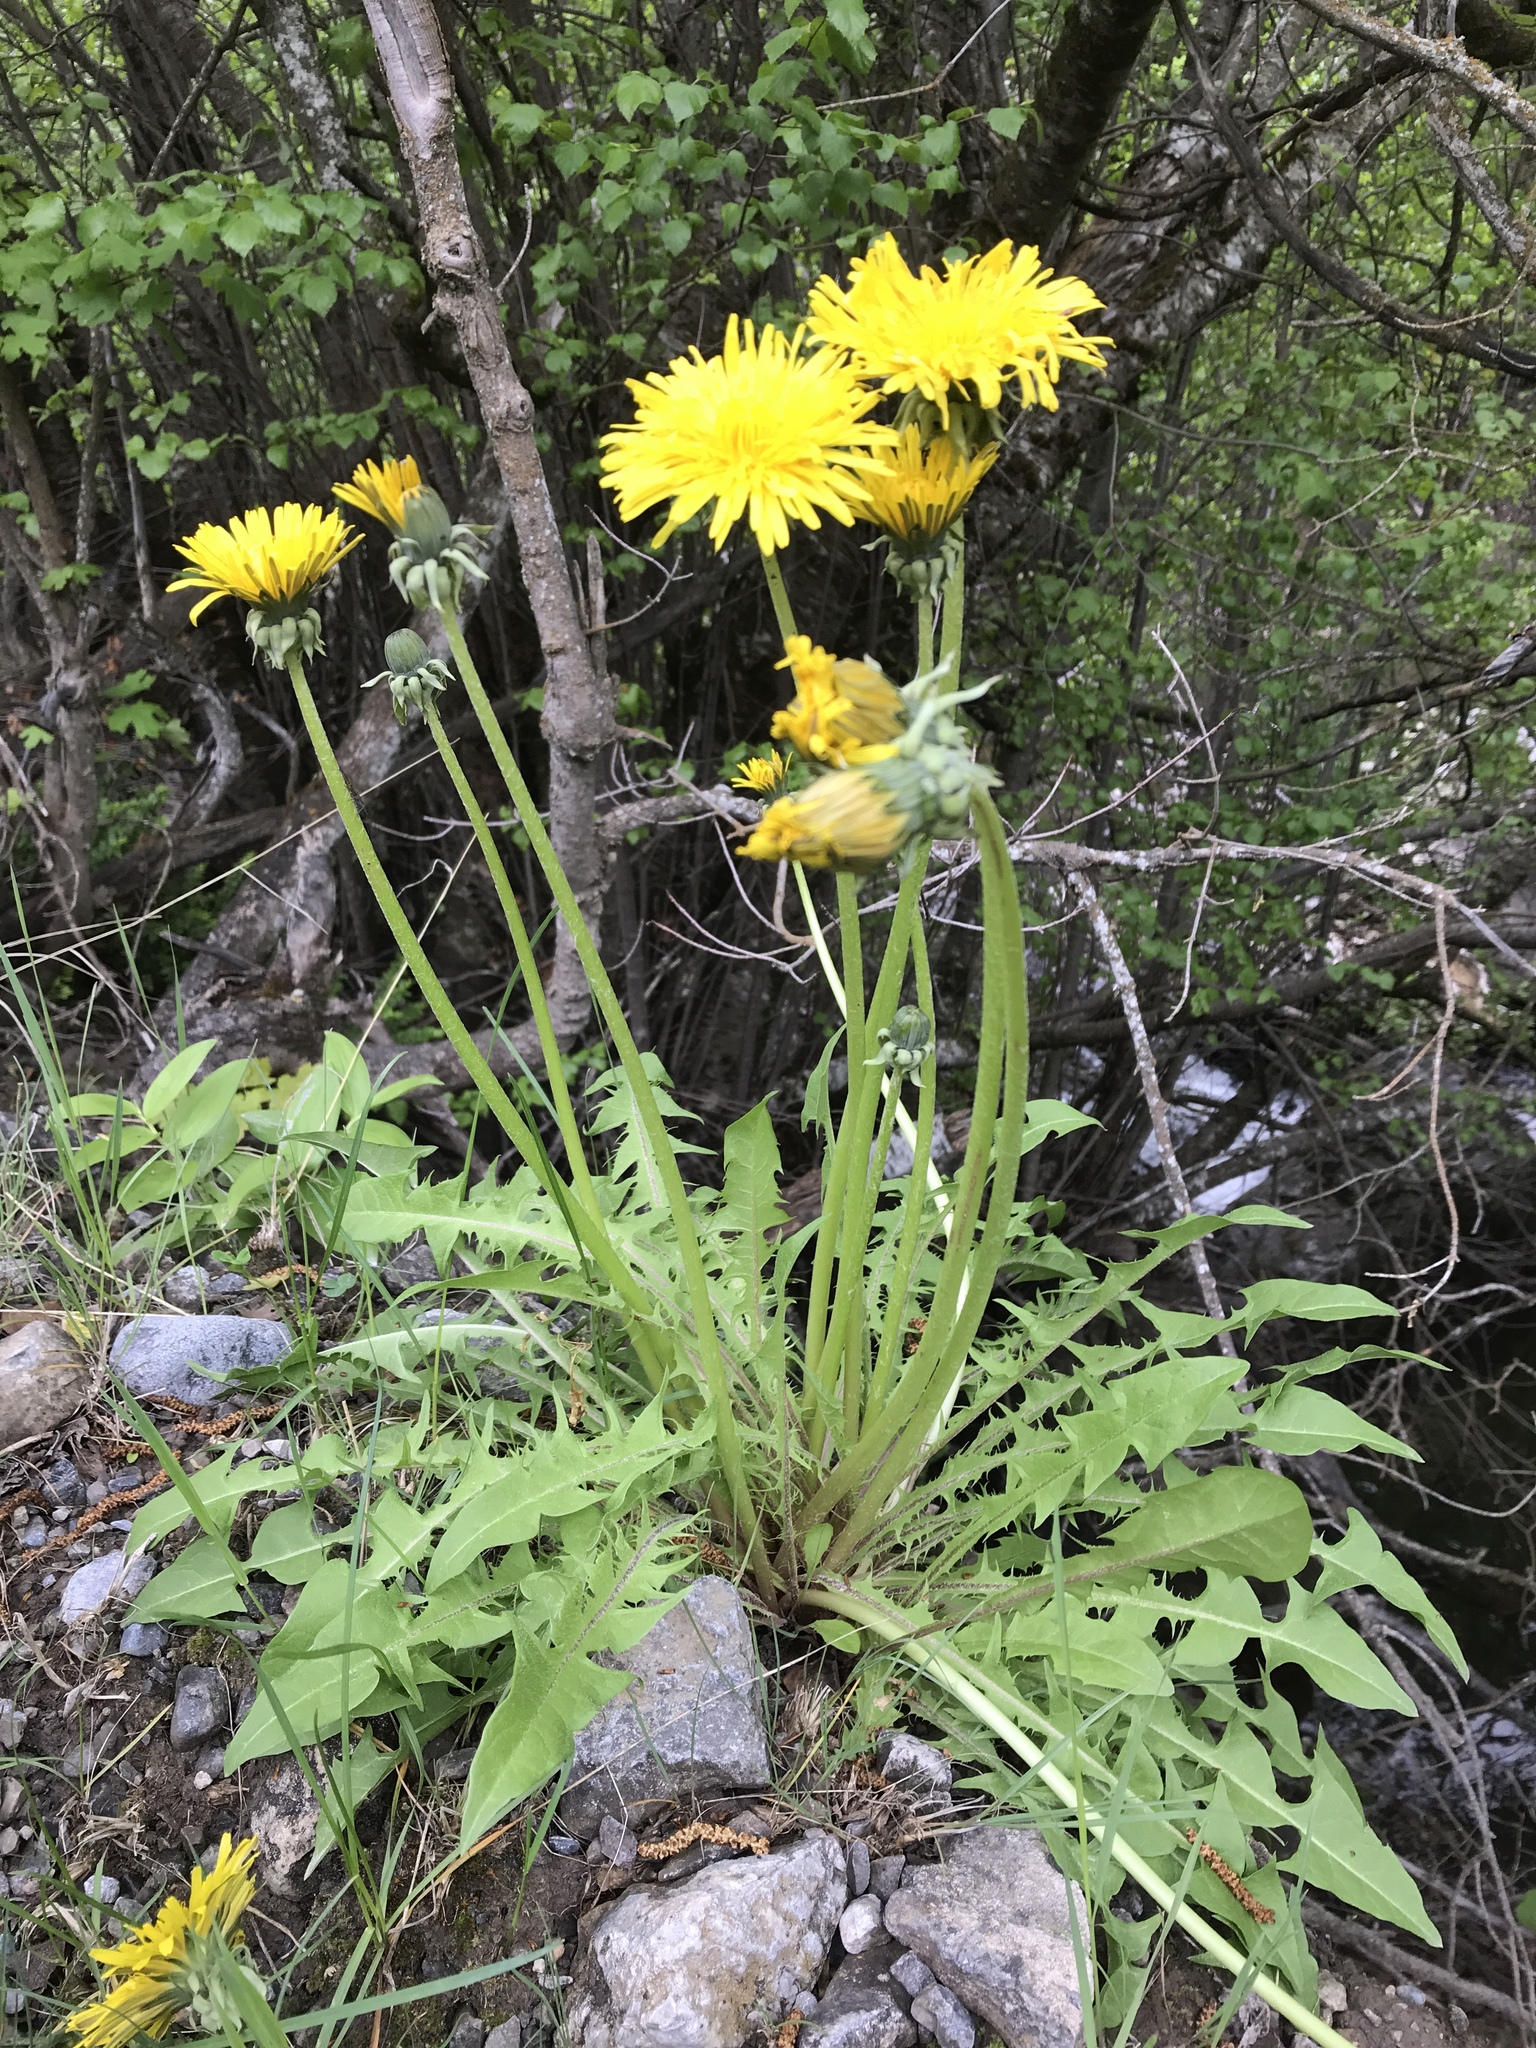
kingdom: Plantae
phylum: Tracheophyta
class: Magnoliopsida
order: Asterales
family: Asteraceae
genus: Taraxacum
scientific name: Taraxacum officinale
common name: Common dandelion
